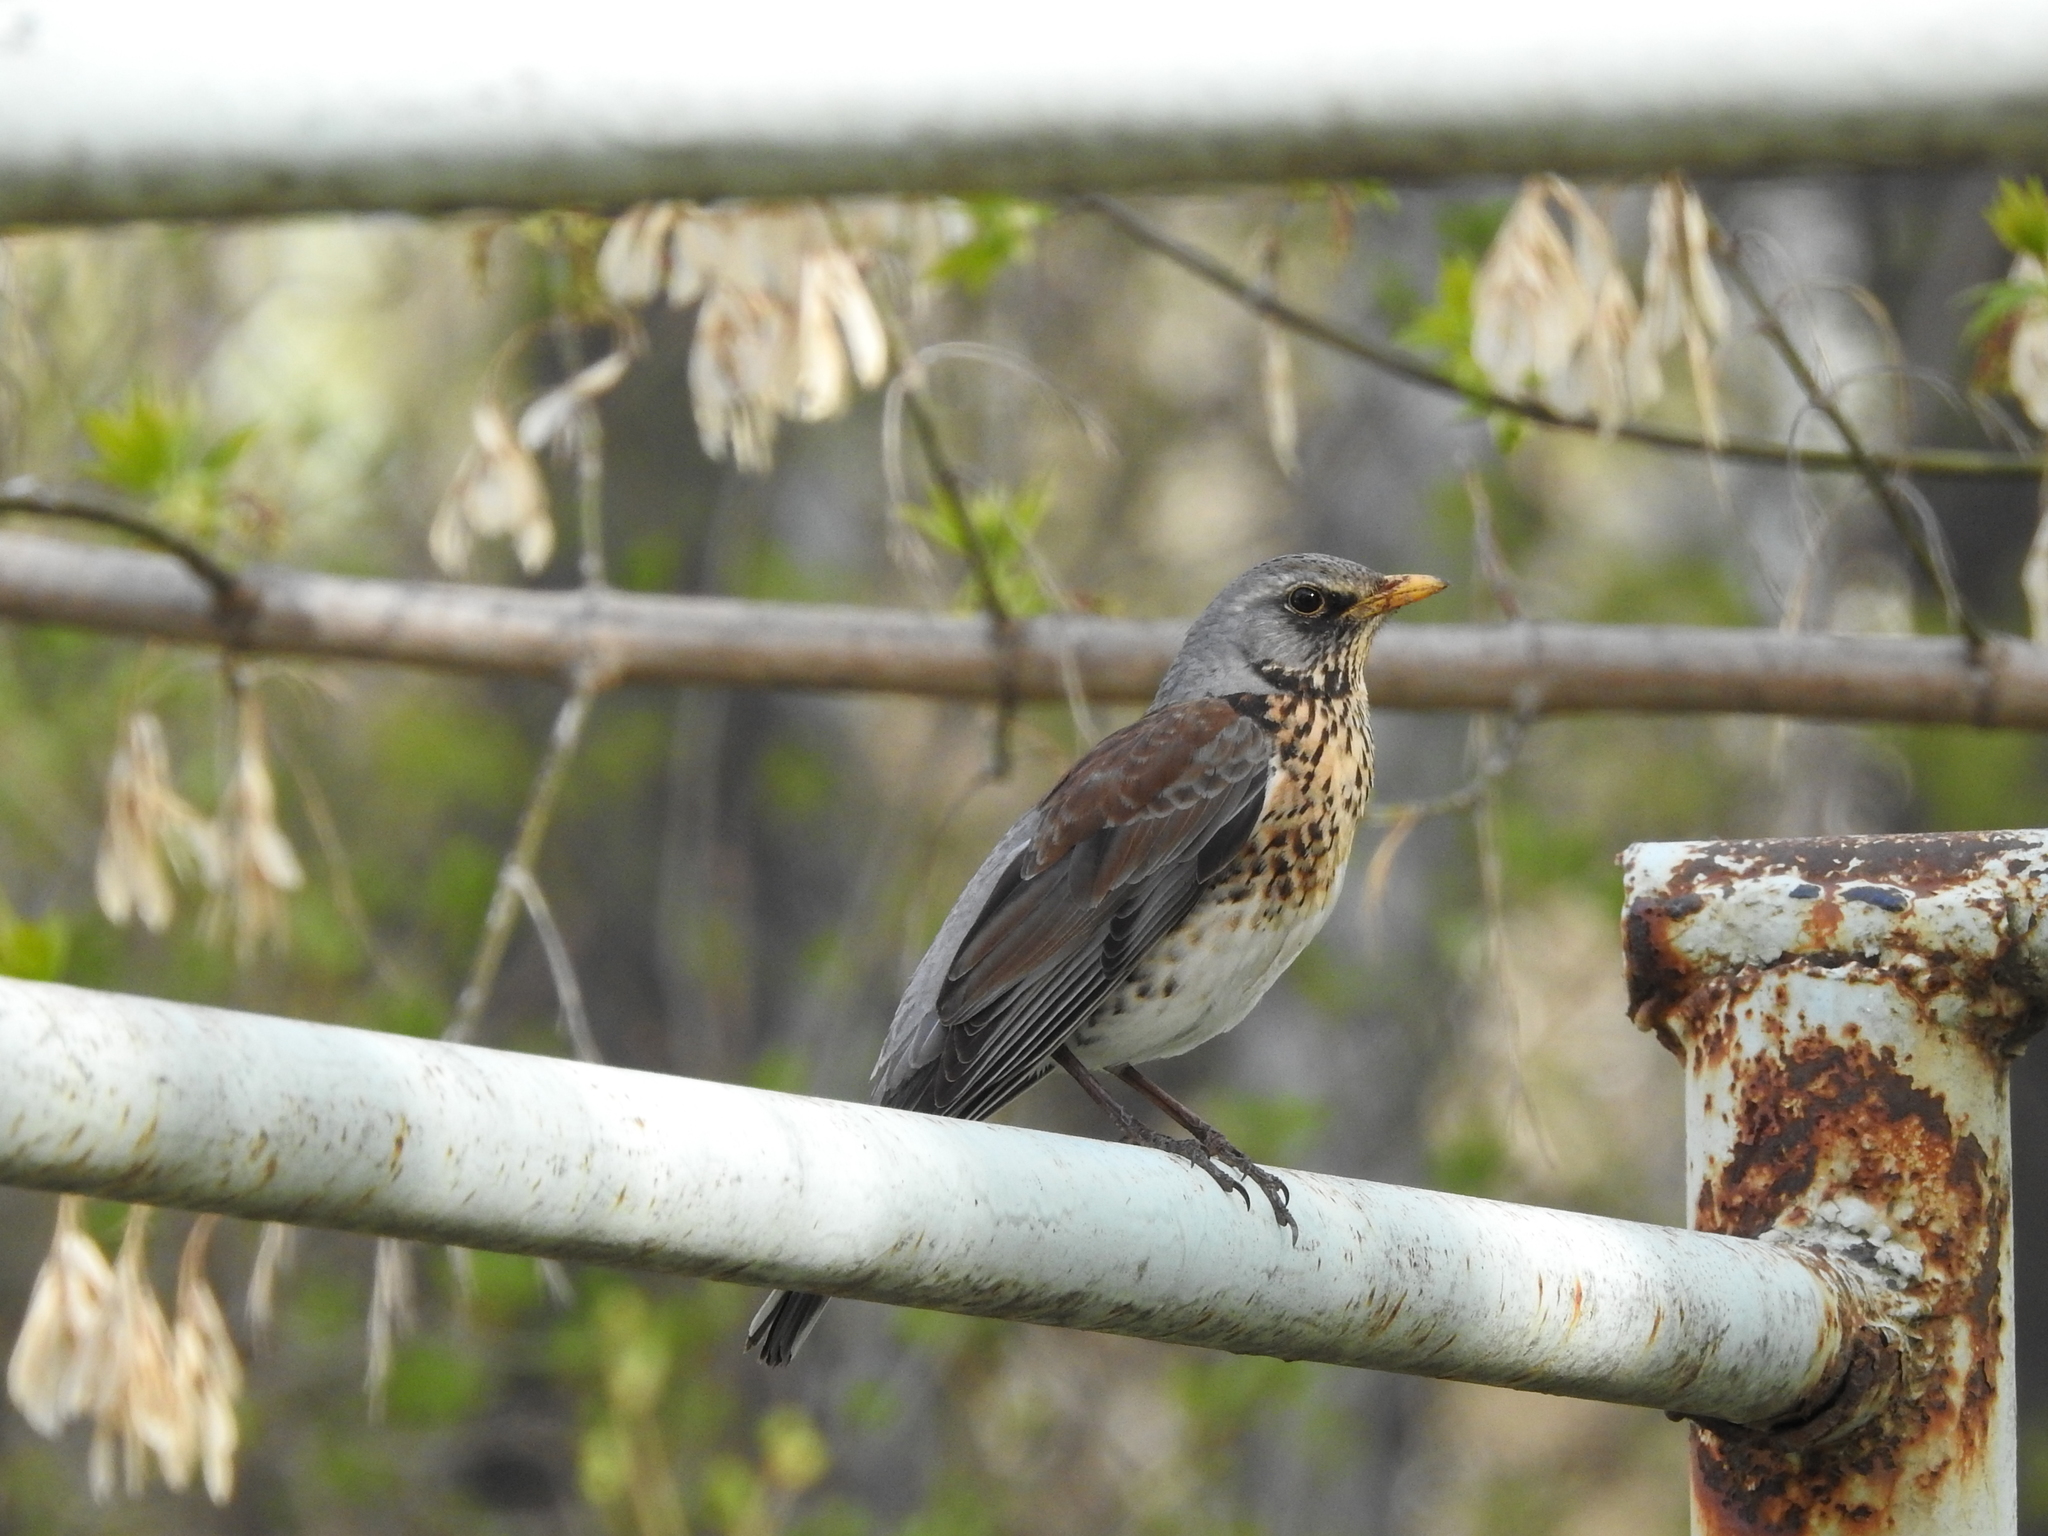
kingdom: Animalia
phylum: Chordata
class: Aves
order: Passeriformes
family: Turdidae
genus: Turdus
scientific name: Turdus pilaris
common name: Fieldfare
